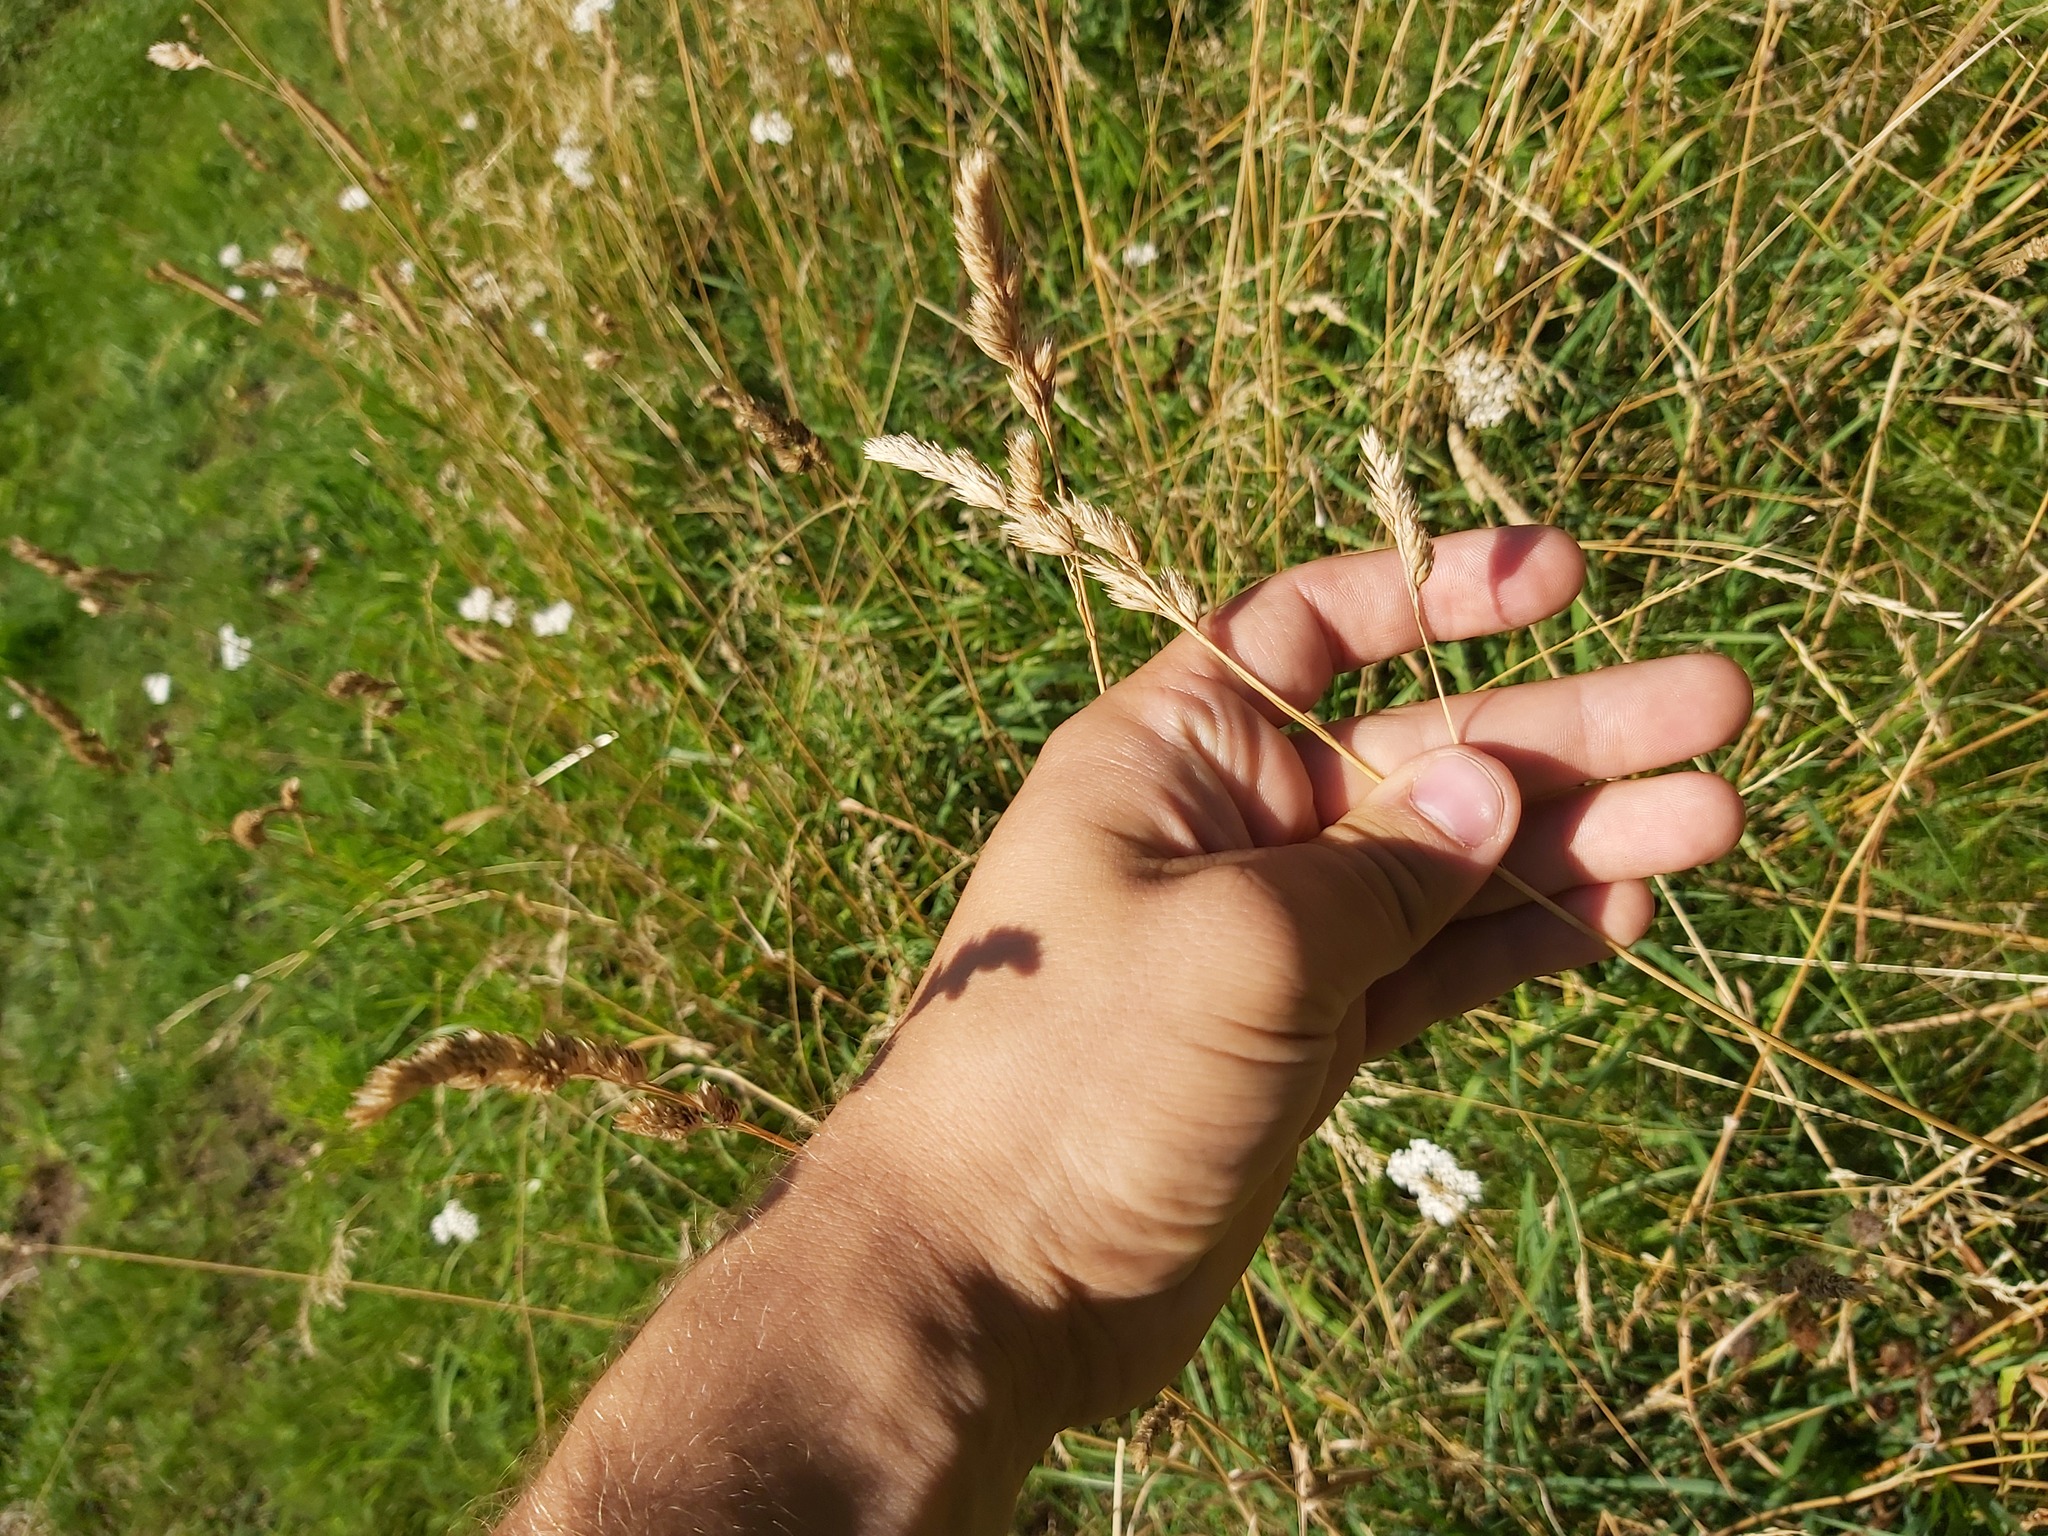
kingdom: Plantae
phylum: Tracheophyta
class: Liliopsida
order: Poales
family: Poaceae
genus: Dactylis
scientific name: Dactylis glomerata
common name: Orchardgrass
